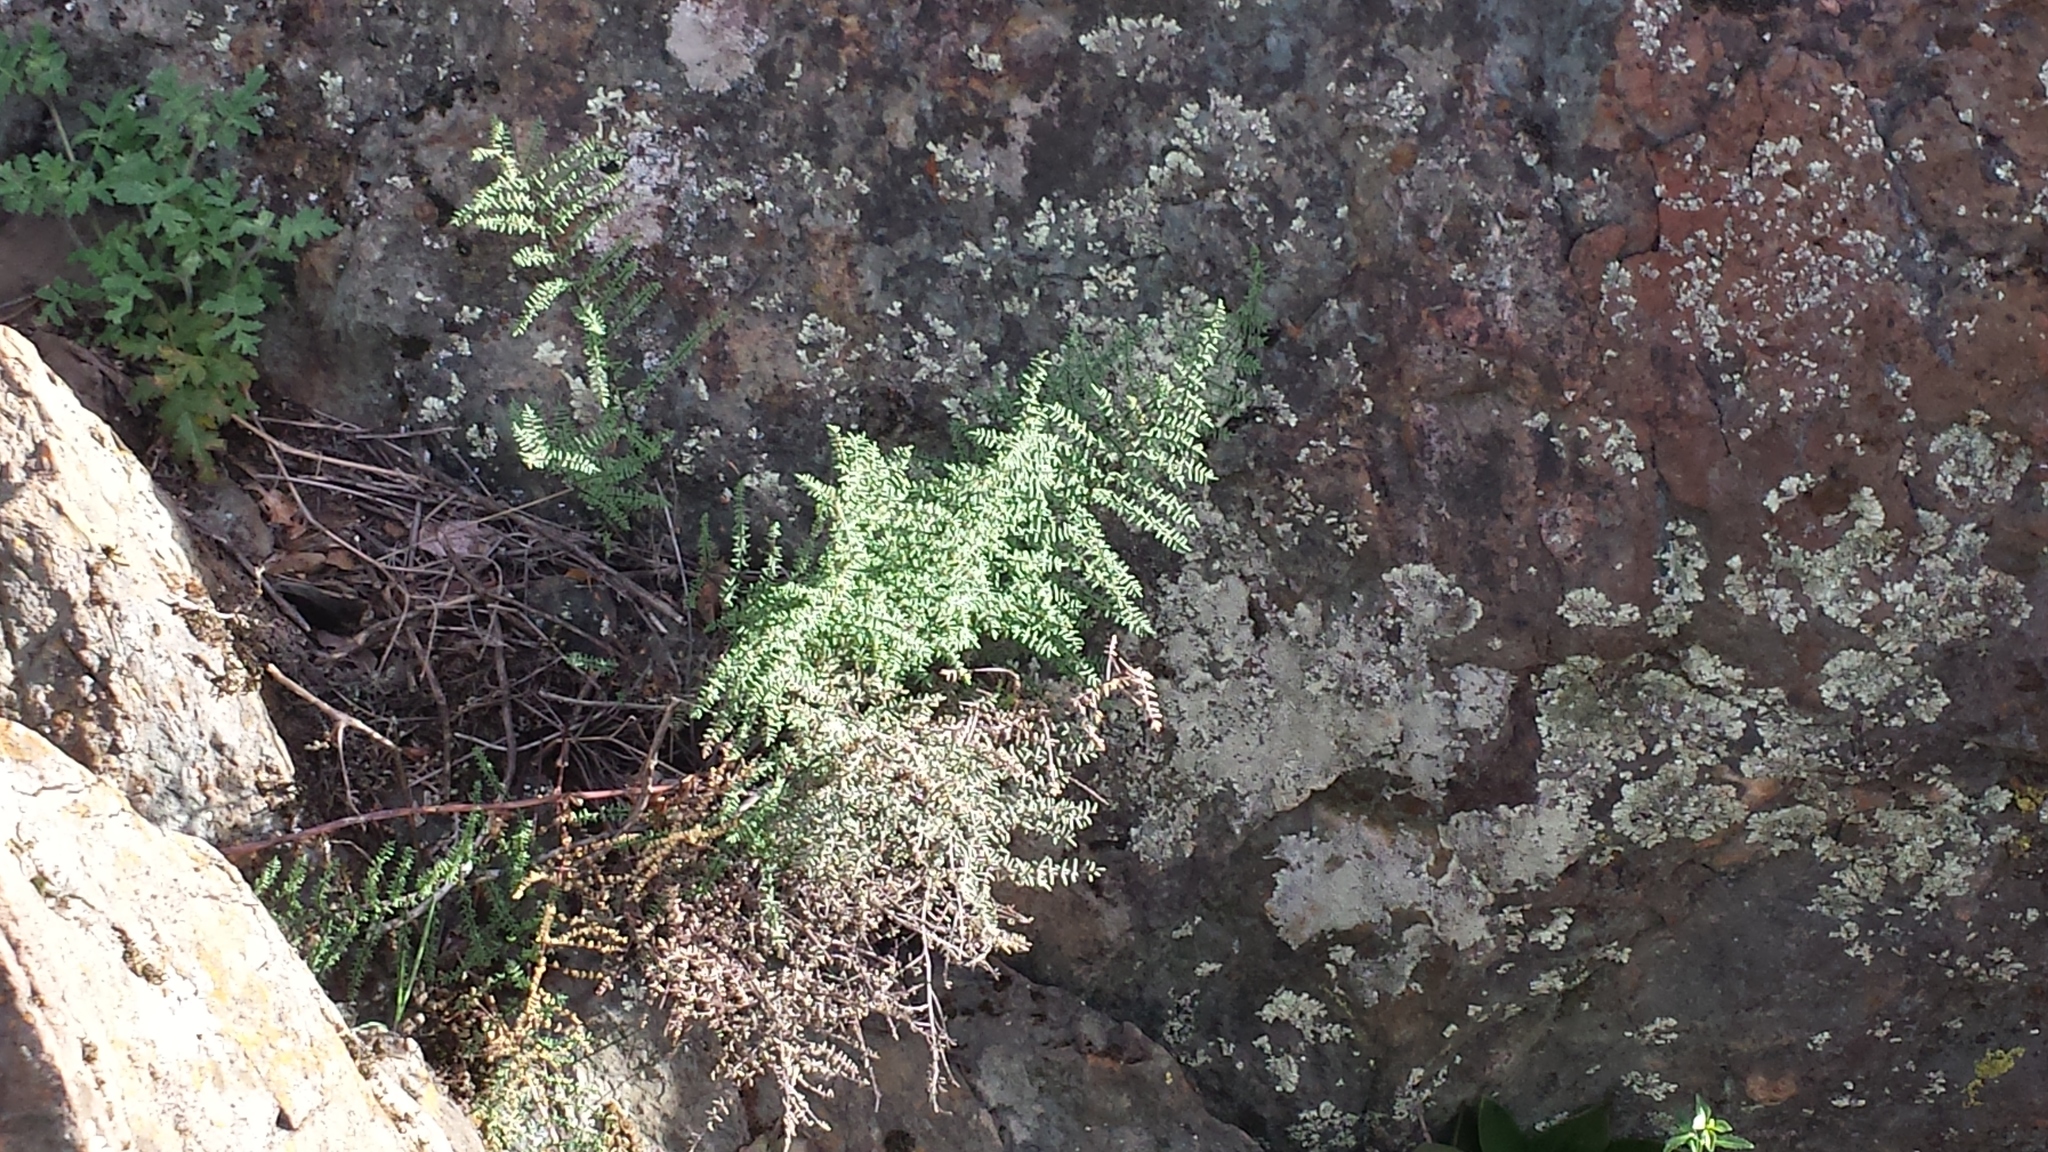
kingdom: Plantae
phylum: Tracheophyta
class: Polypodiopsida
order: Polypodiales
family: Pteridaceae
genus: Pellaea
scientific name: Pellaea mucronata
